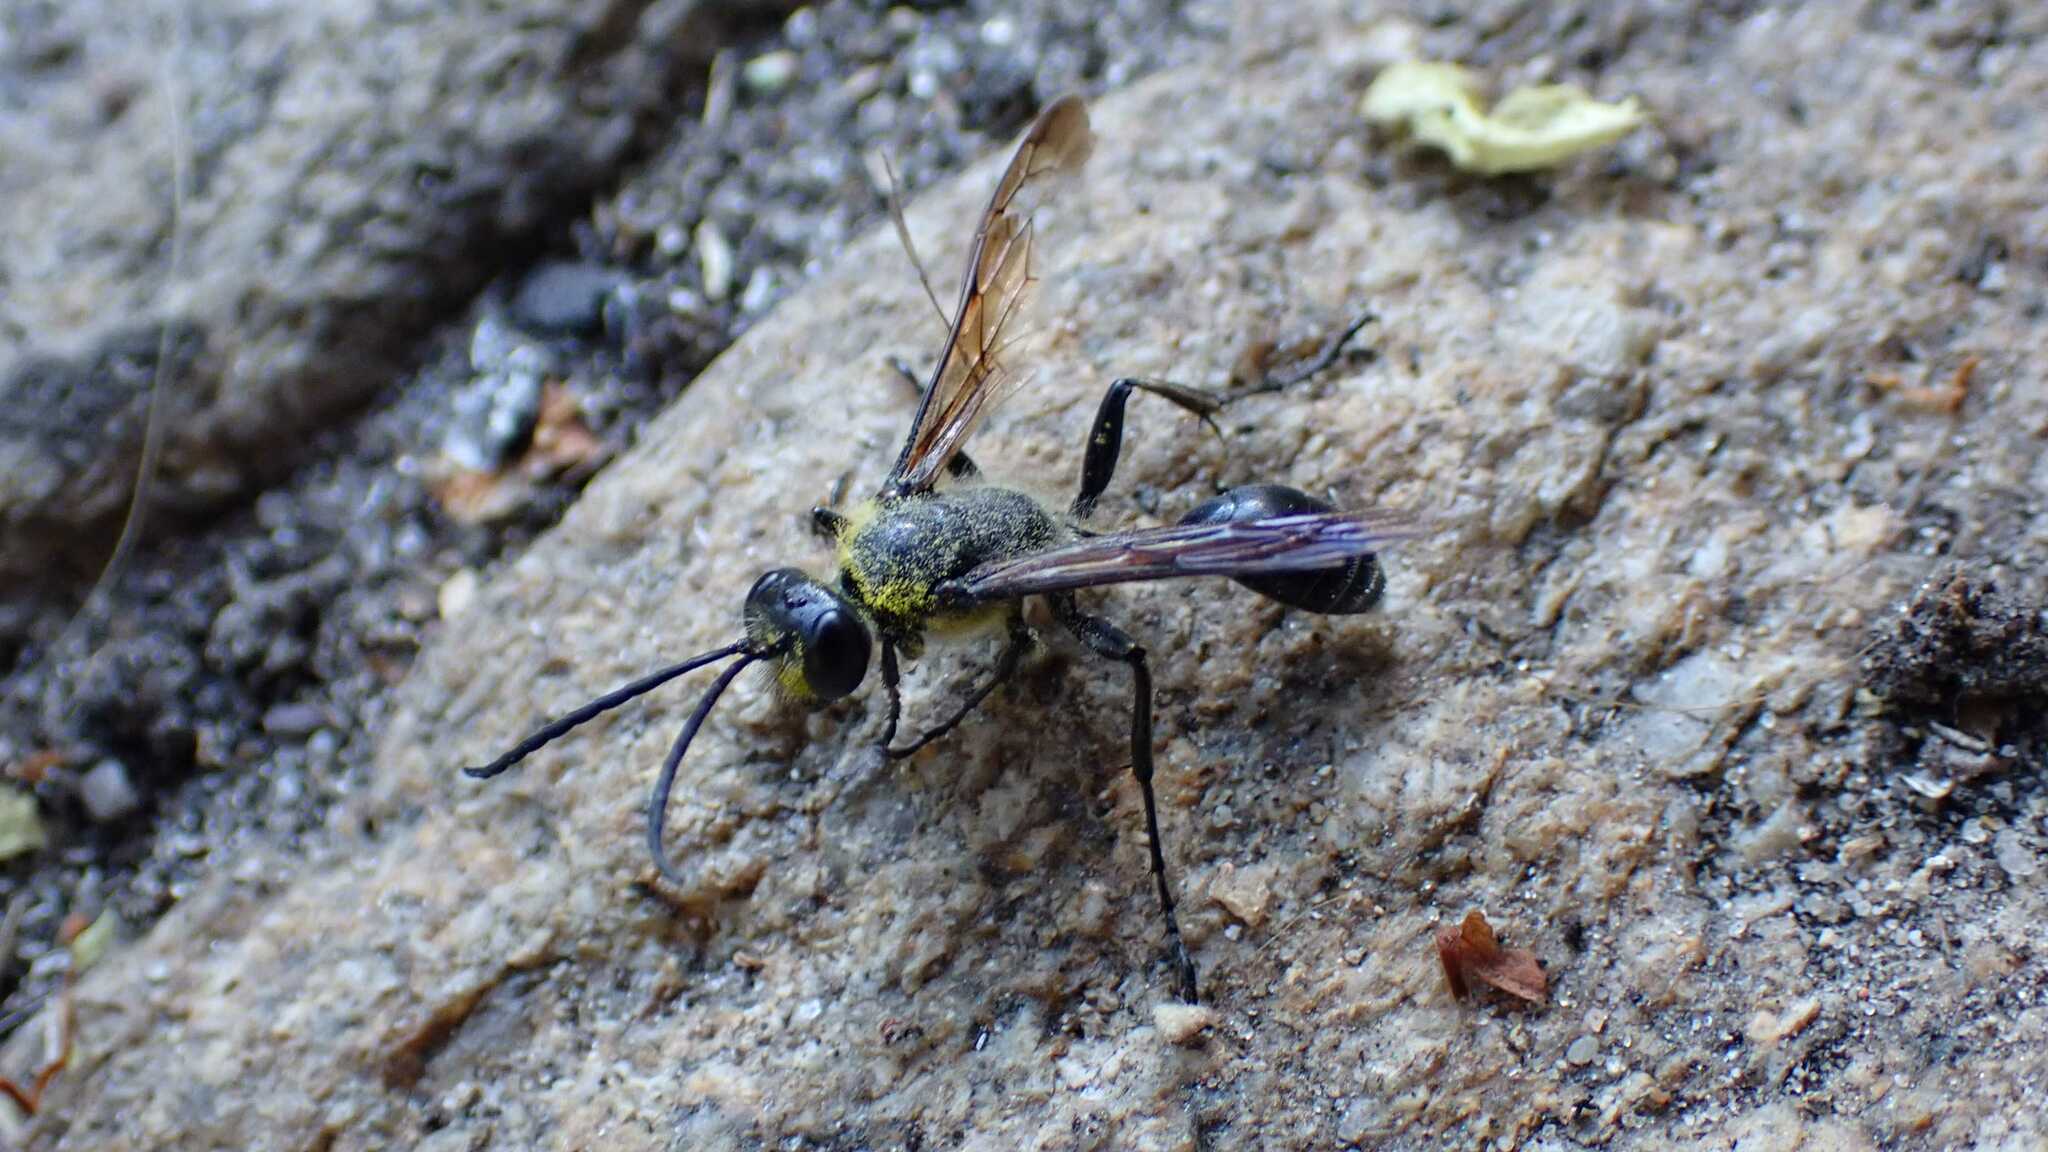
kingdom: Animalia
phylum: Arthropoda
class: Insecta
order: Hymenoptera
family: Sphecidae
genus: Isodontia
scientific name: Isodontia mexicana
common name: Mud dauber
